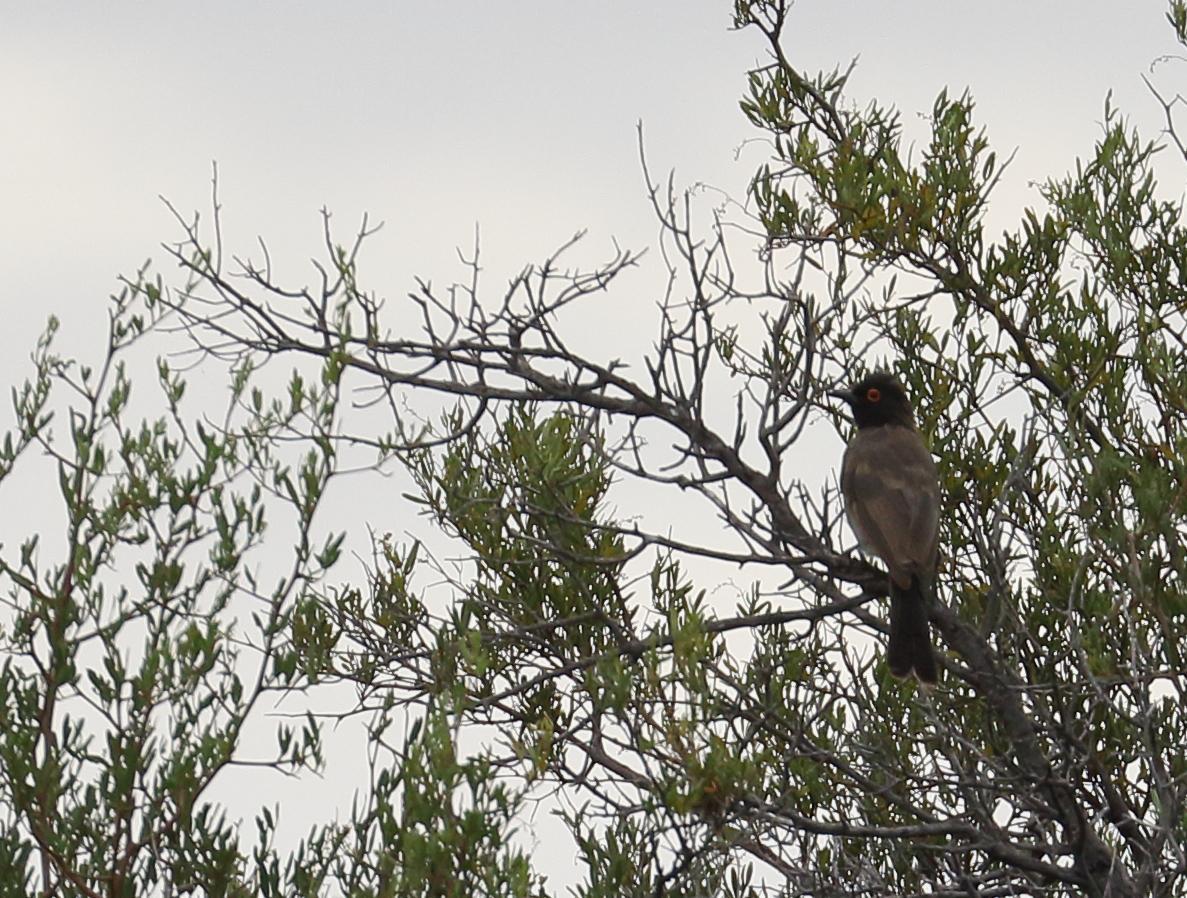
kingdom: Animalia
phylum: Chordata
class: Aves
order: Passeriformes
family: Pycnonotidae
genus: Pycnonotus
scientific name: Pycnonotus nigricans
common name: African red-eyed bulbul
